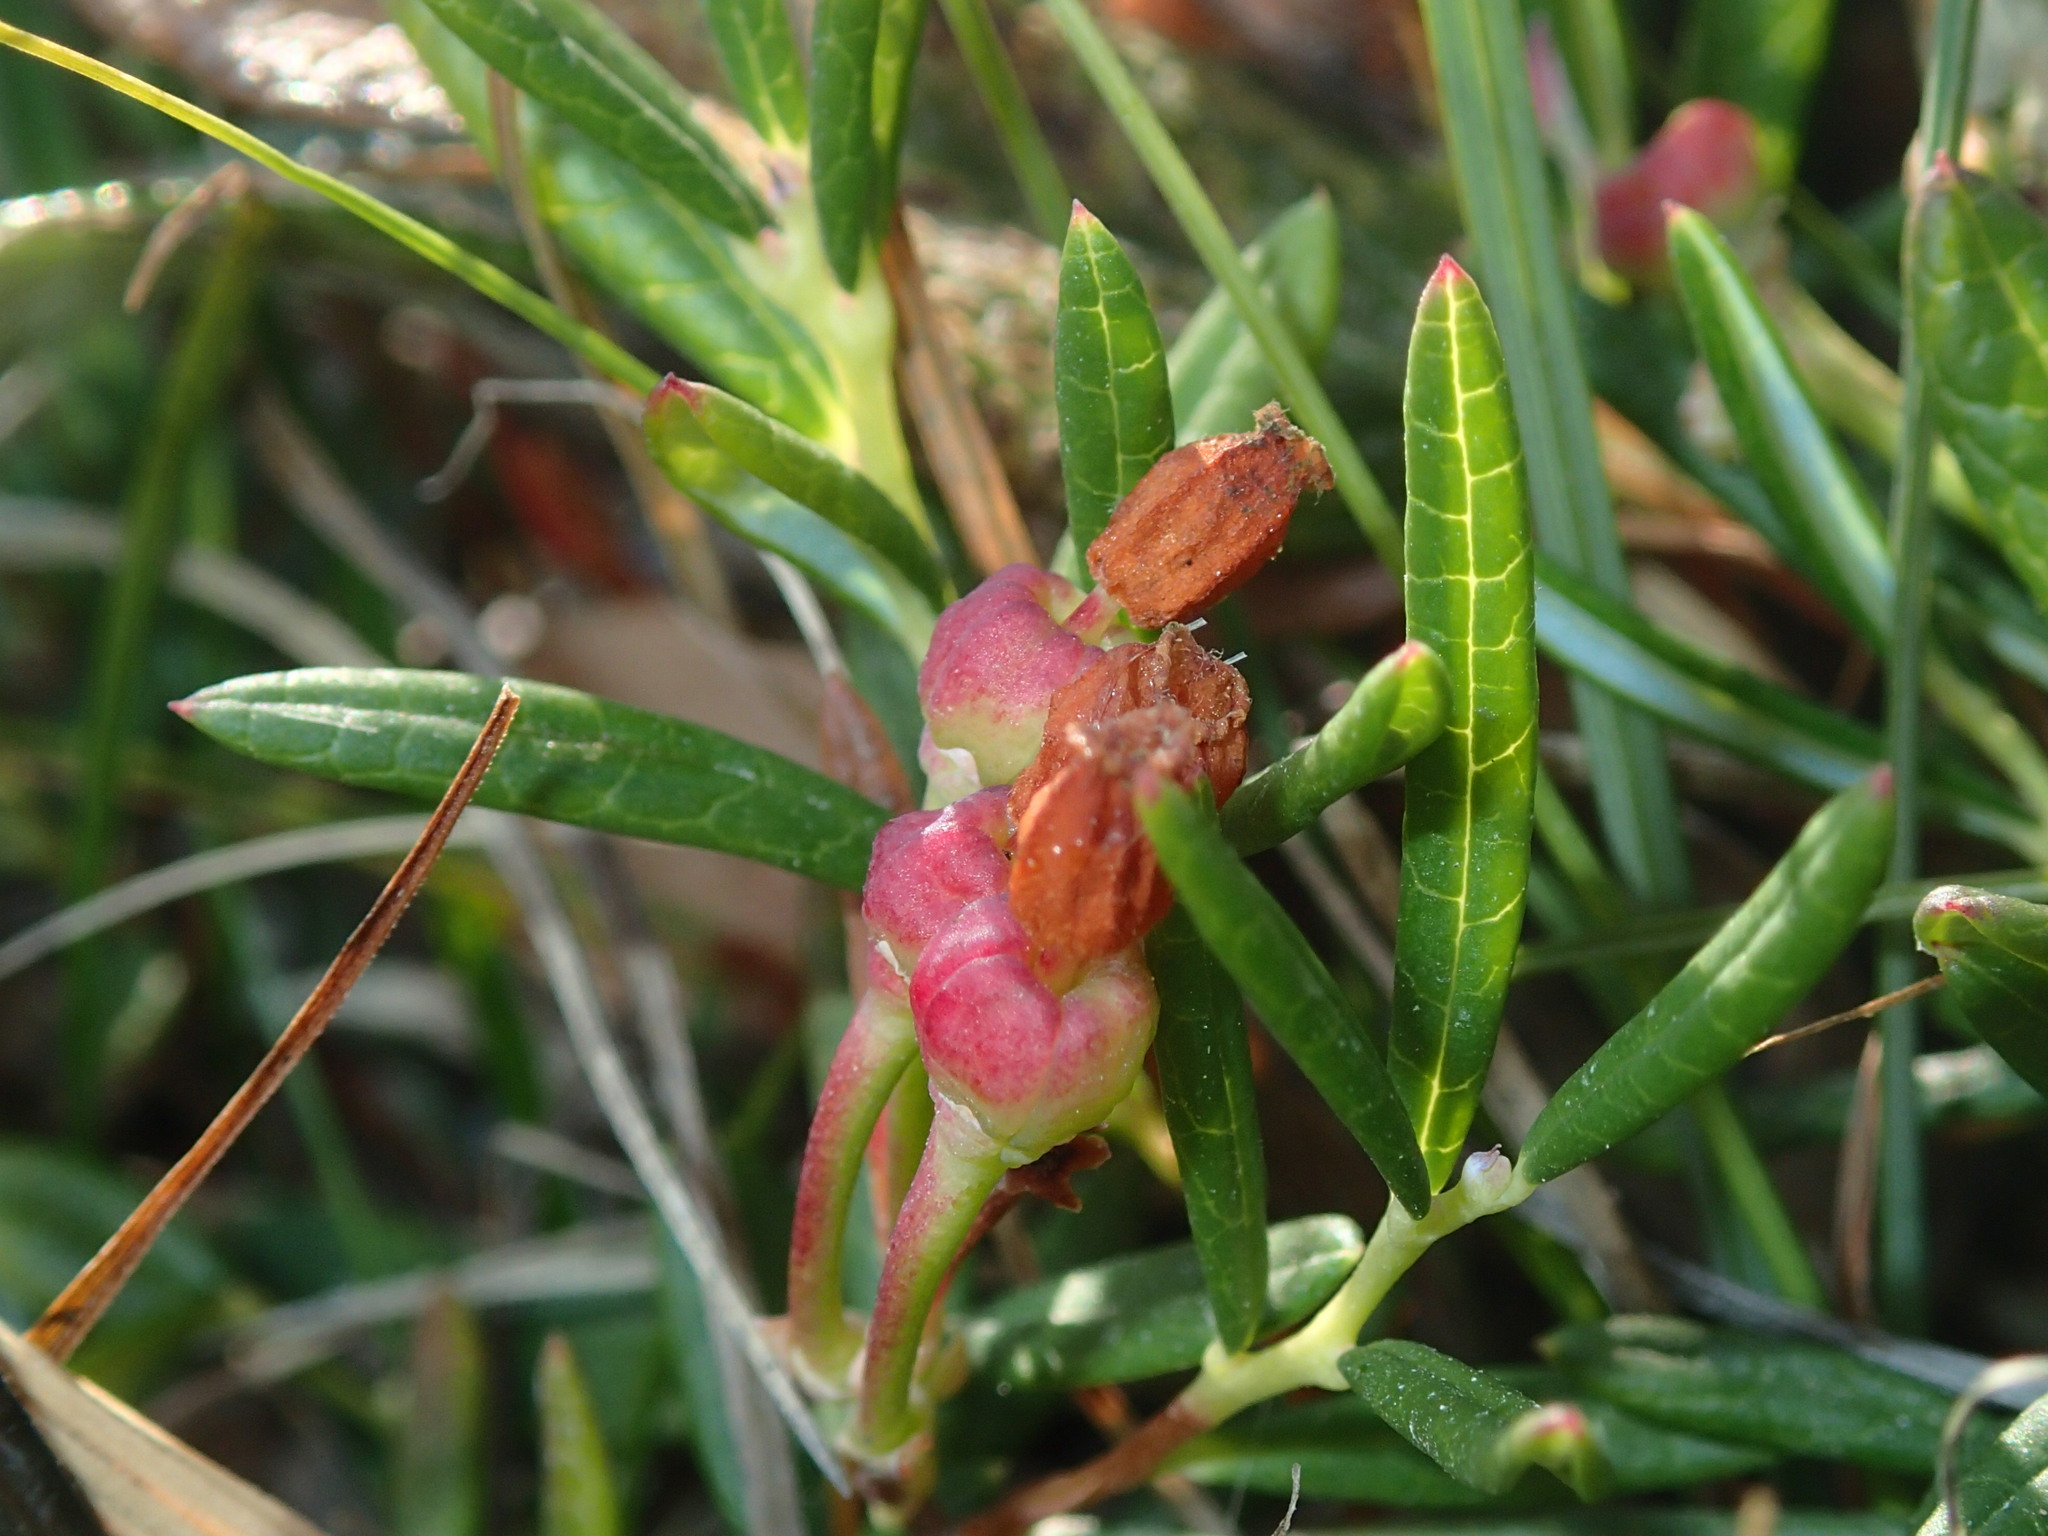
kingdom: Plantae
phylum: Tracheophyta
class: Magnoliopsida
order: Ericales
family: Ericaceae
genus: Andromeda
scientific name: Andromeda polifolia
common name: Bog-rosemary
